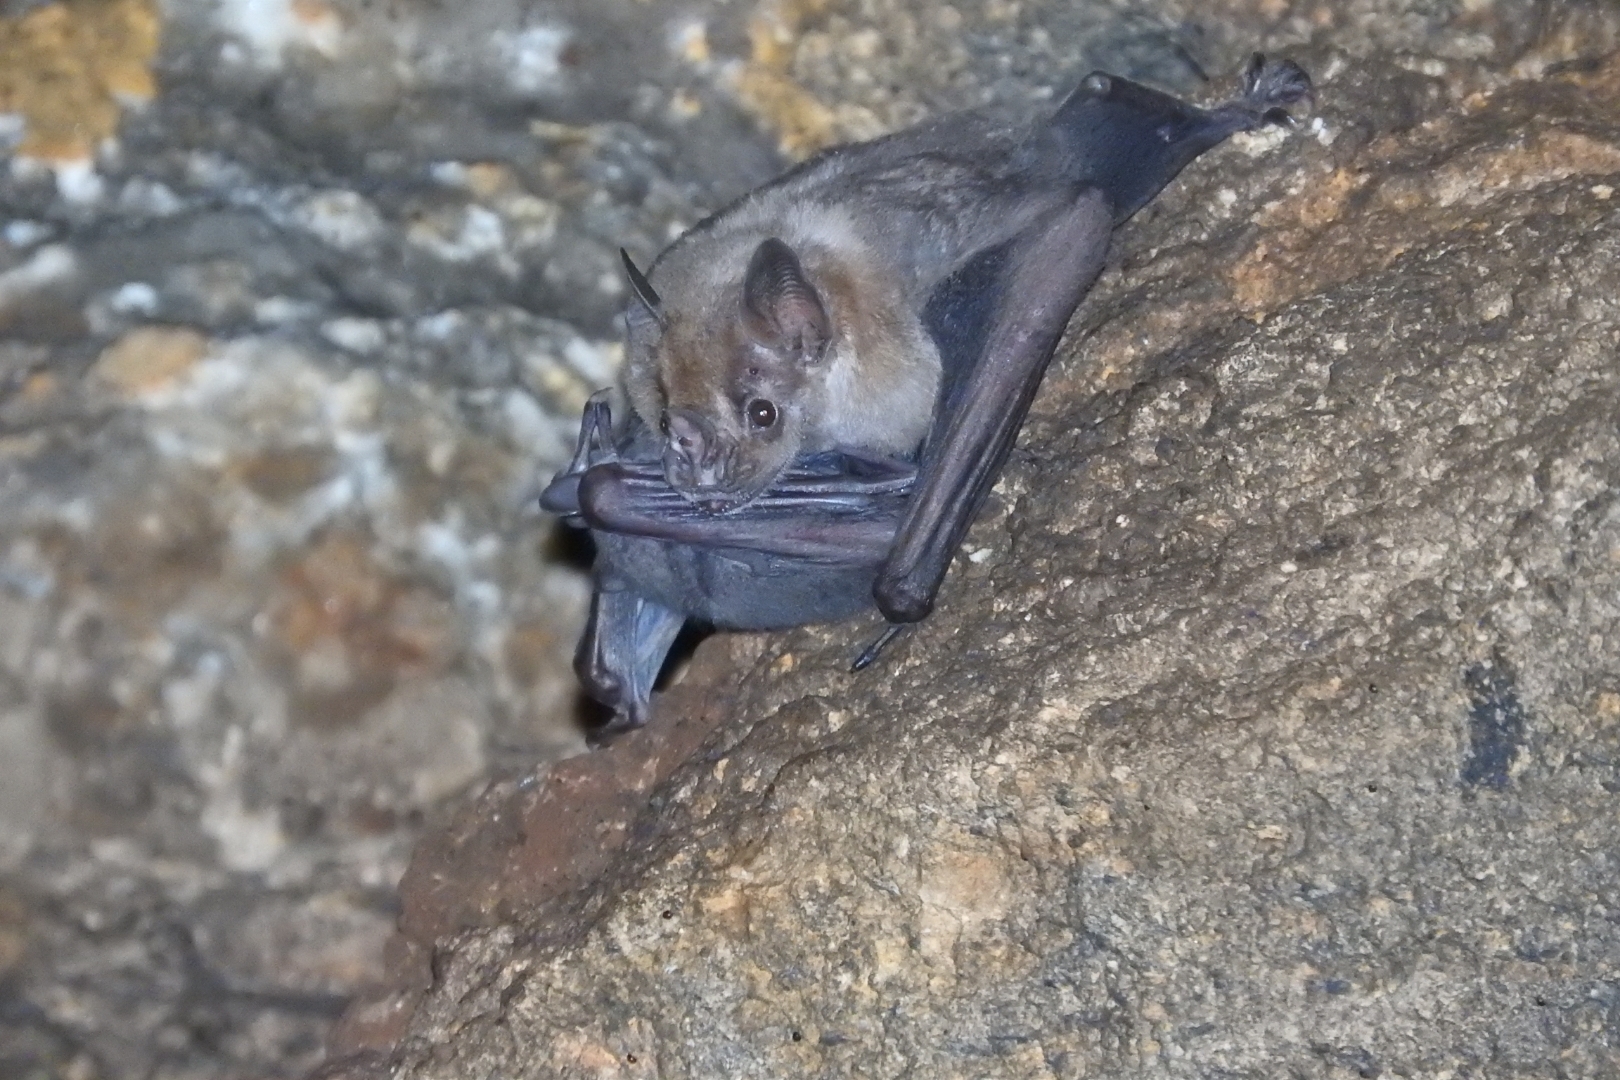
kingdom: Animalia
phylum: Chordata
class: Mammalia
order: Chiroptera
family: Phyllostomidae
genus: Artibeus
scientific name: Artibeus jamaicensis
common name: Jamaican fruit-eating bat
